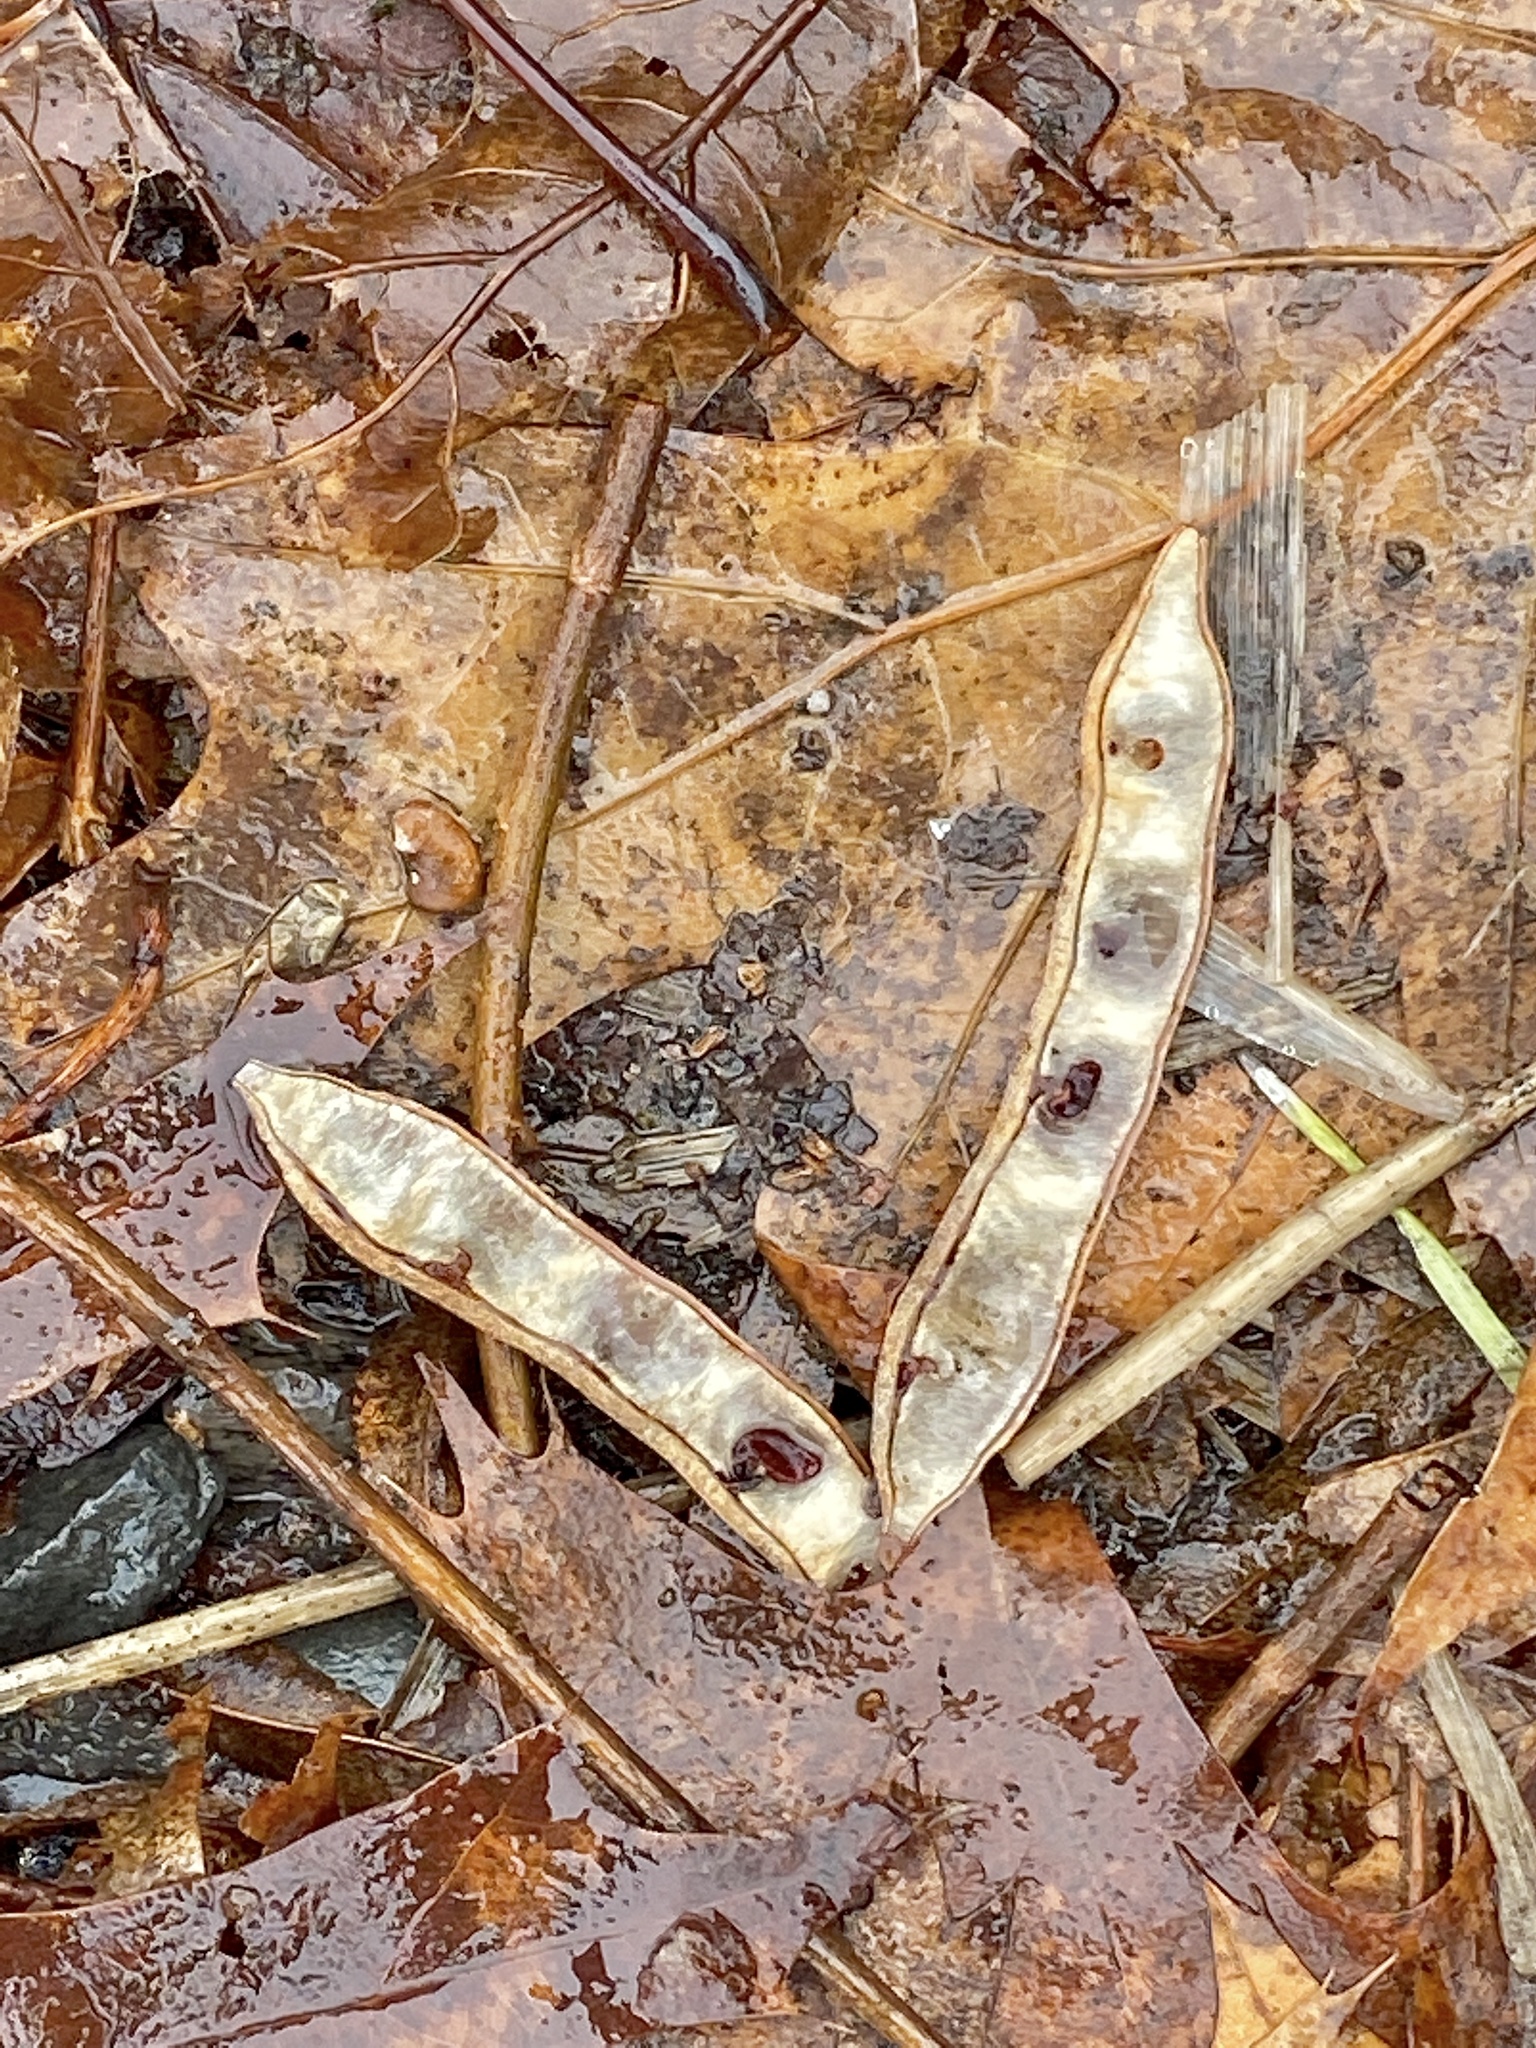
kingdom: Plantae
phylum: Tracheophyta
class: Magnoliopsida
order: Fabales
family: Fabaceae
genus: Robinia
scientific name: Robinia pseudoacacia
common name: Black locust
